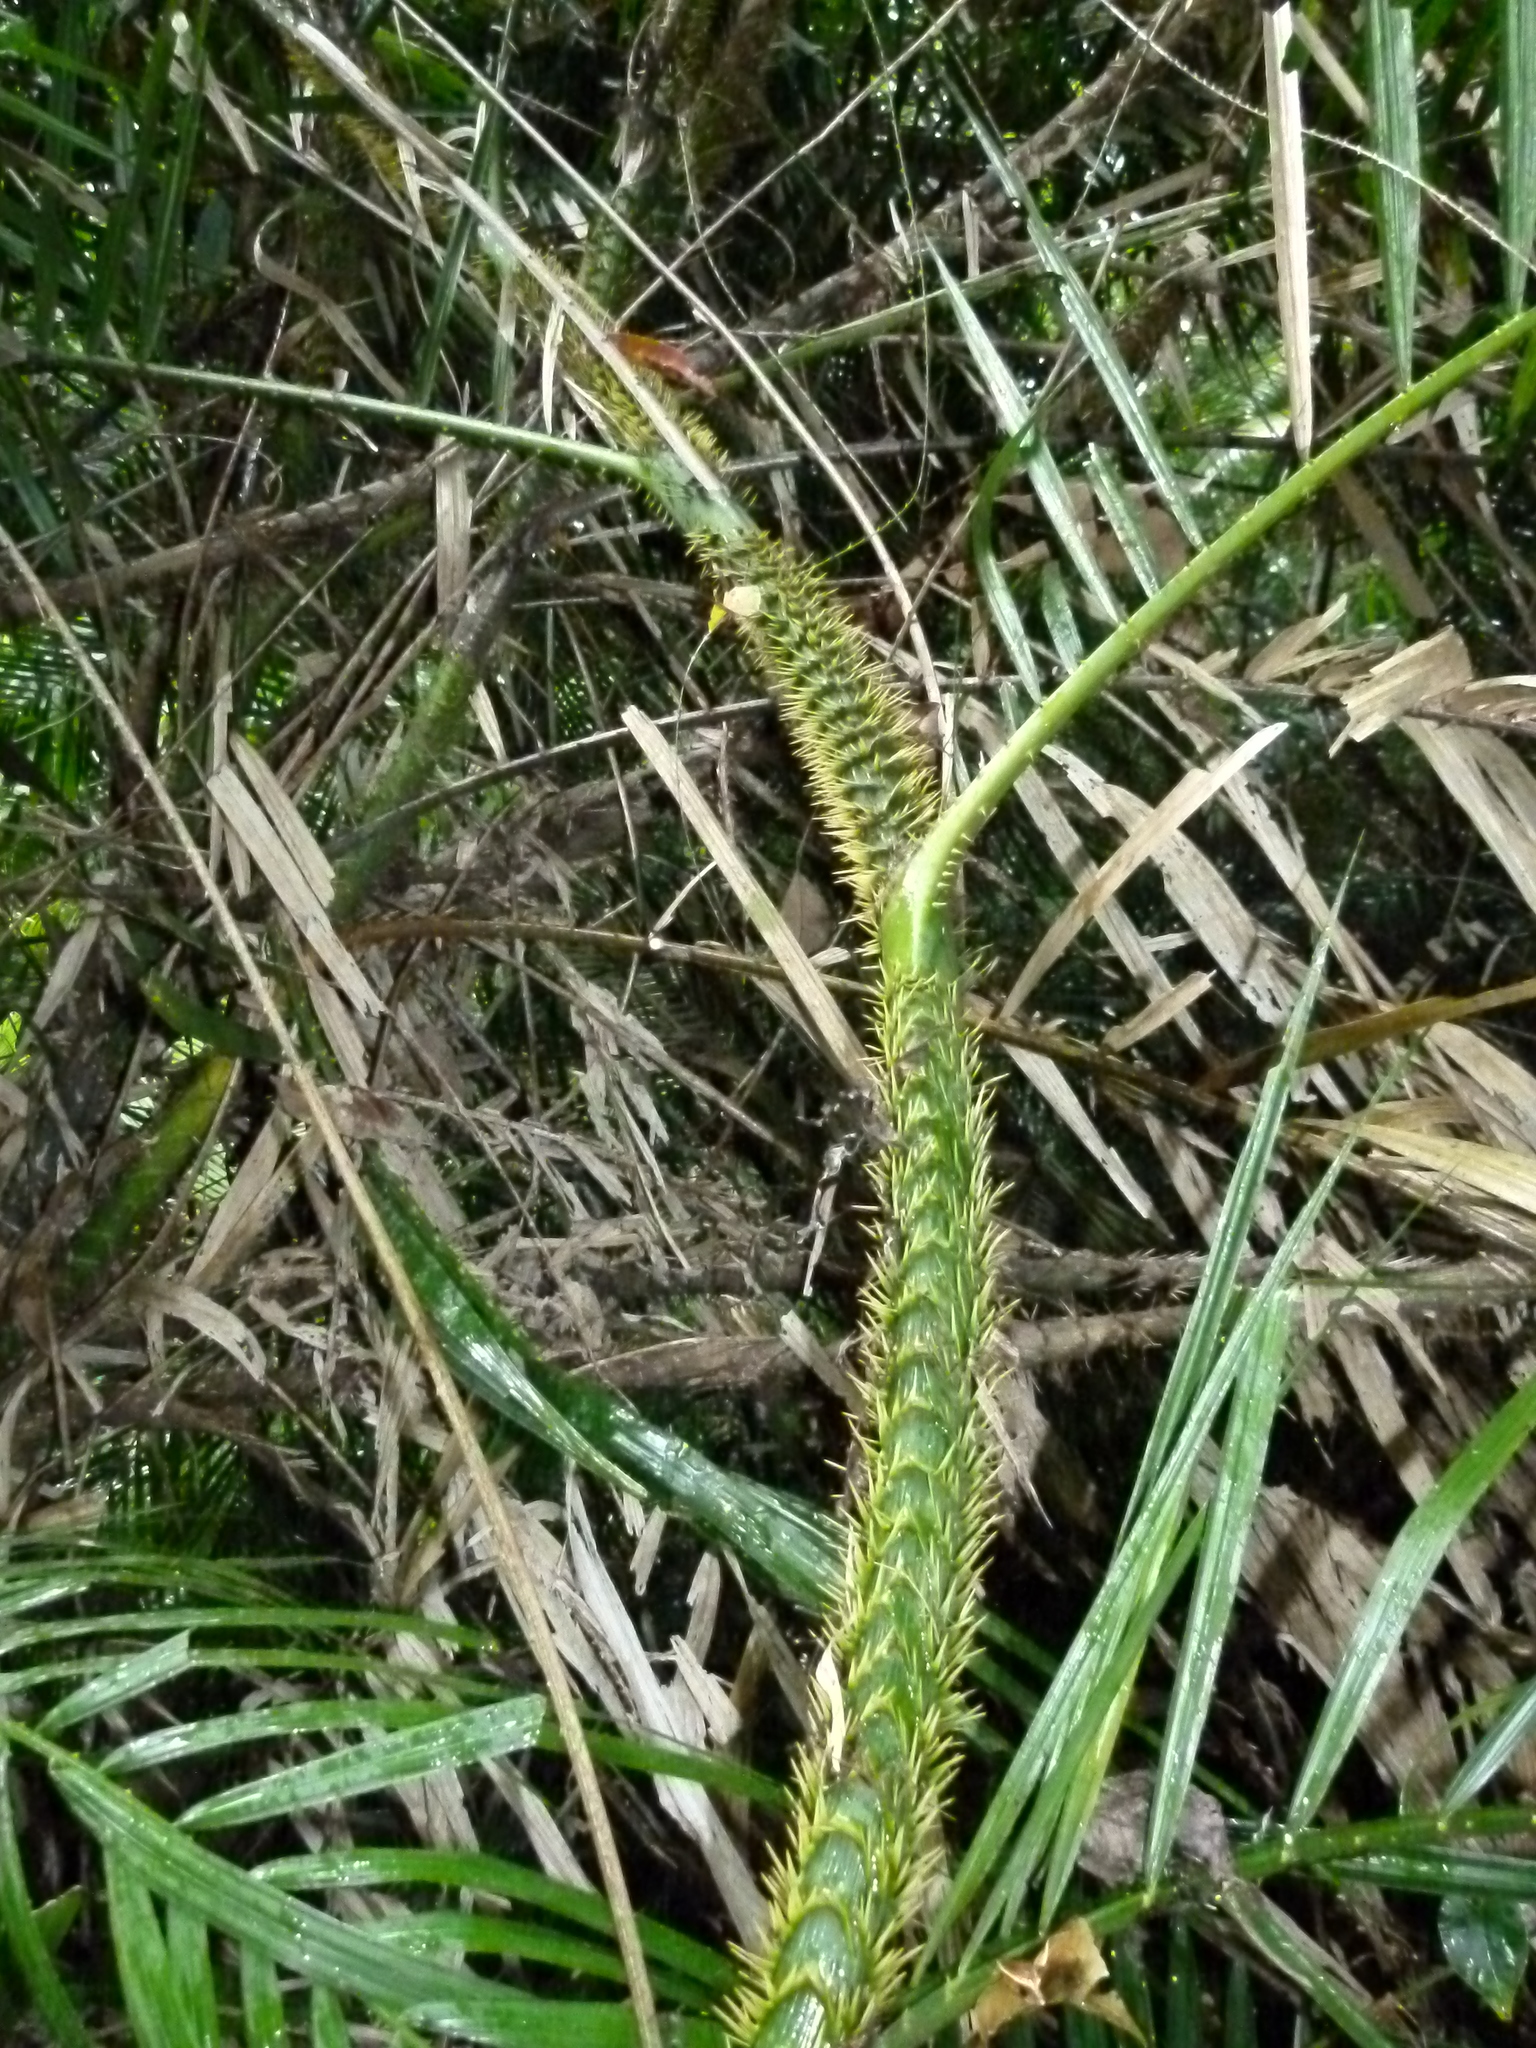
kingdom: Plantae
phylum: Tracheophyta
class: Liliopsida
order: Arecales
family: Arecaceae
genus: Calamus
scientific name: Calamus moti
